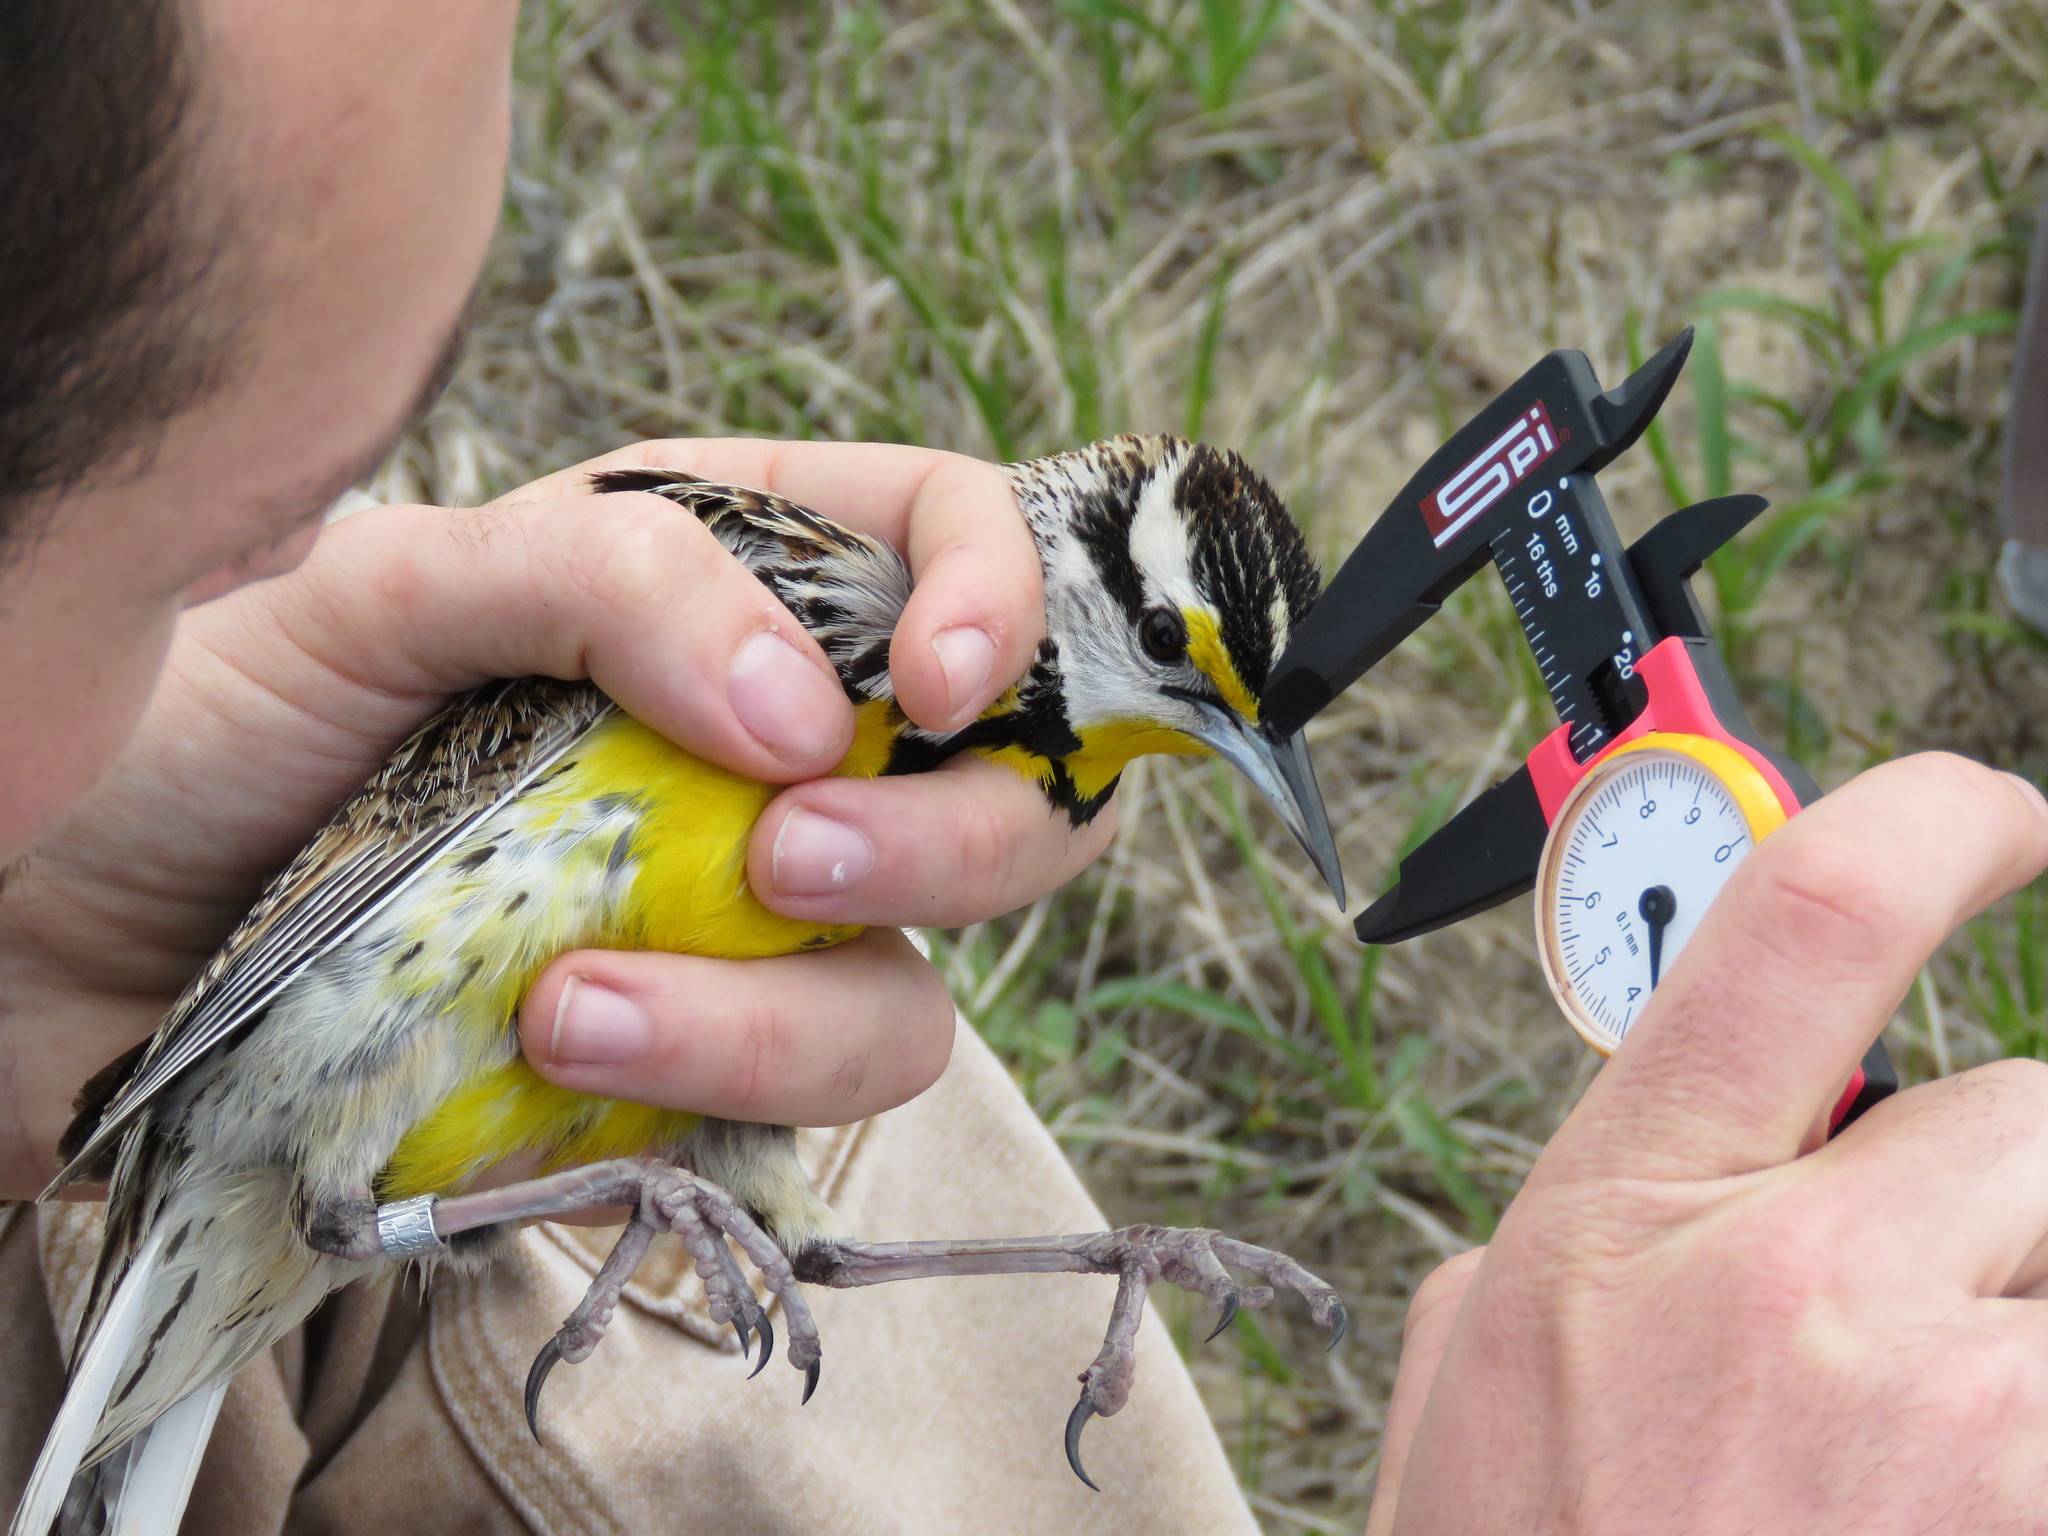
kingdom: Animalia
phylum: Chordata
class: Aves
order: Passeriformes
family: Icteridae
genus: Sturnella
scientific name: Sturnella magna
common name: Eastern meadowlark
